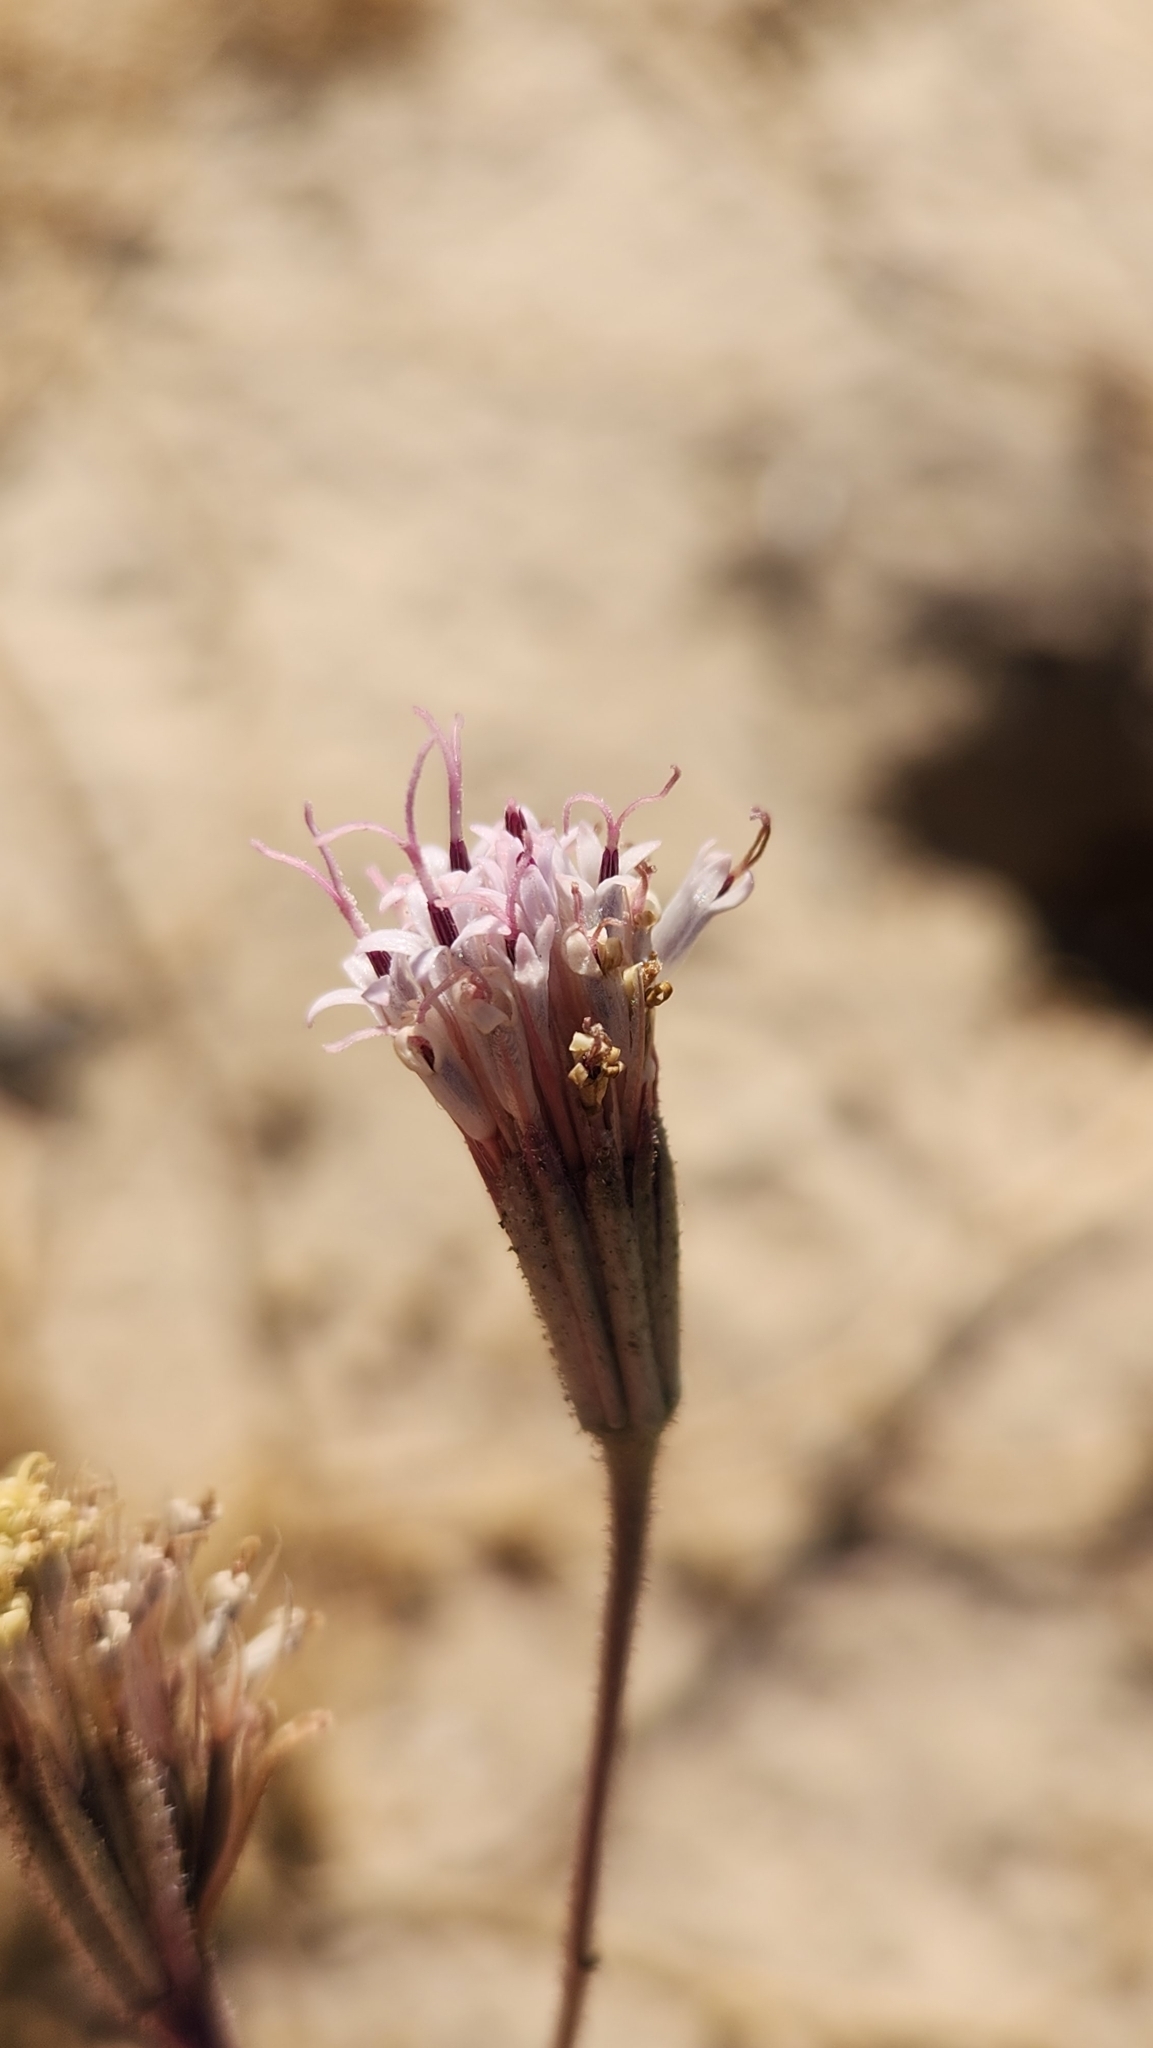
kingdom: Plantae
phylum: Tracheophyta
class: Magnoliopsida
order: Asterales
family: Asteraceae
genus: Palafoxia
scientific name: Palafoxia arida
